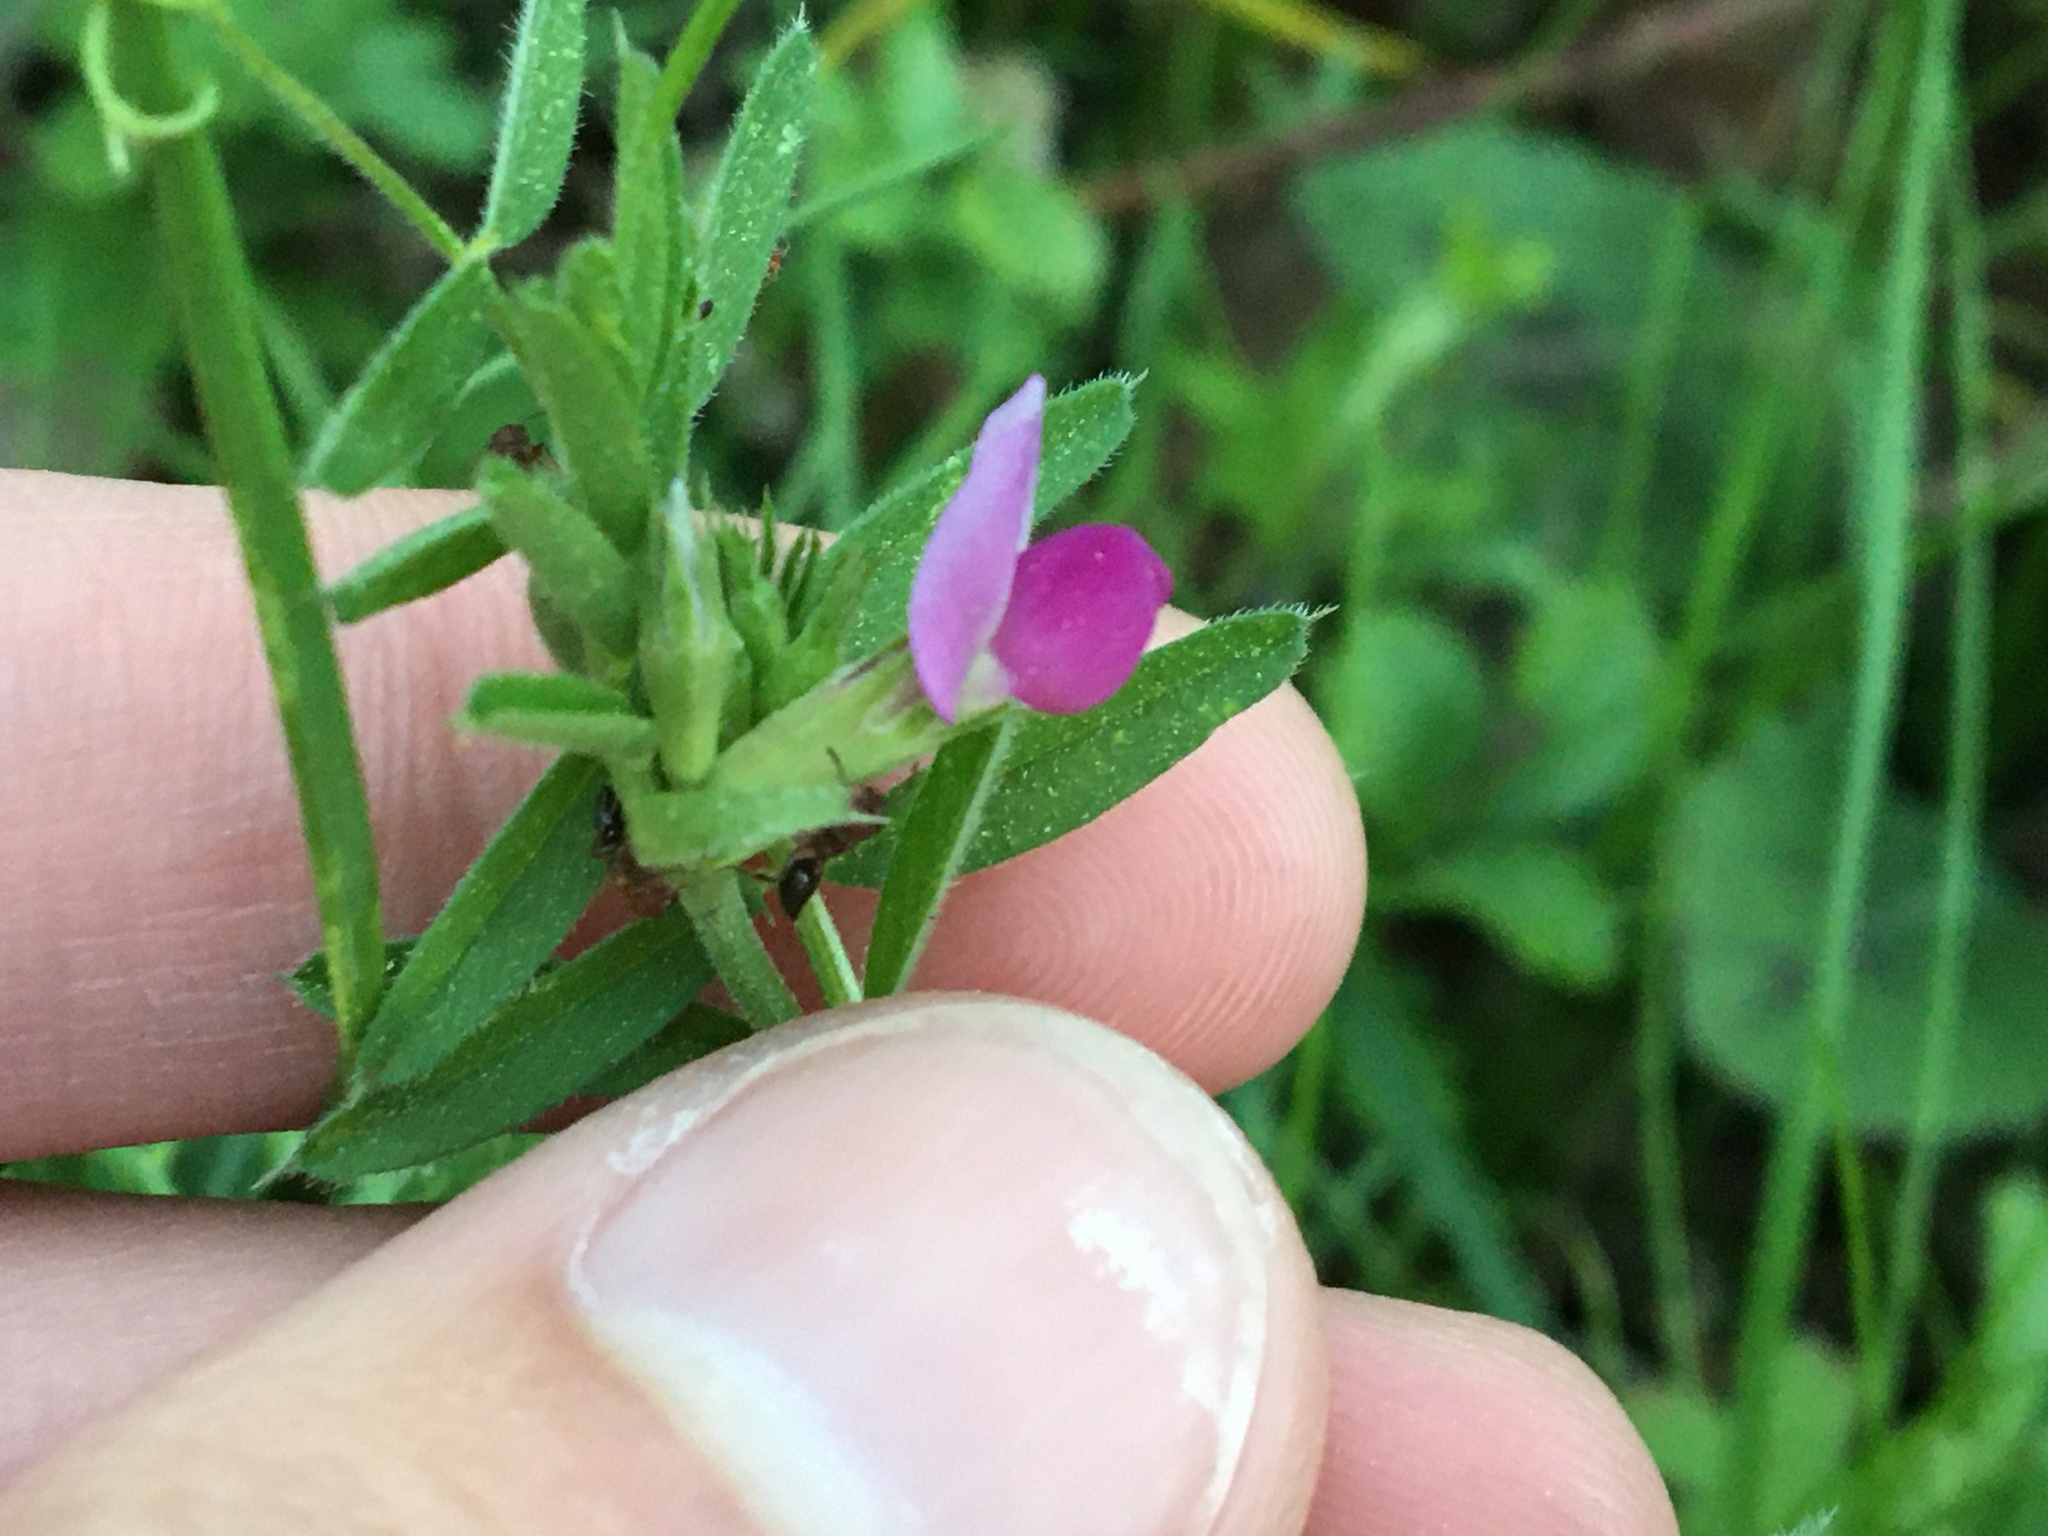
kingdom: Plantae
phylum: Tracheophyta
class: Magnoliopsida
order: Fabales
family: Fabaceae
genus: Vicia
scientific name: Vicia sativa
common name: Garden vetch
